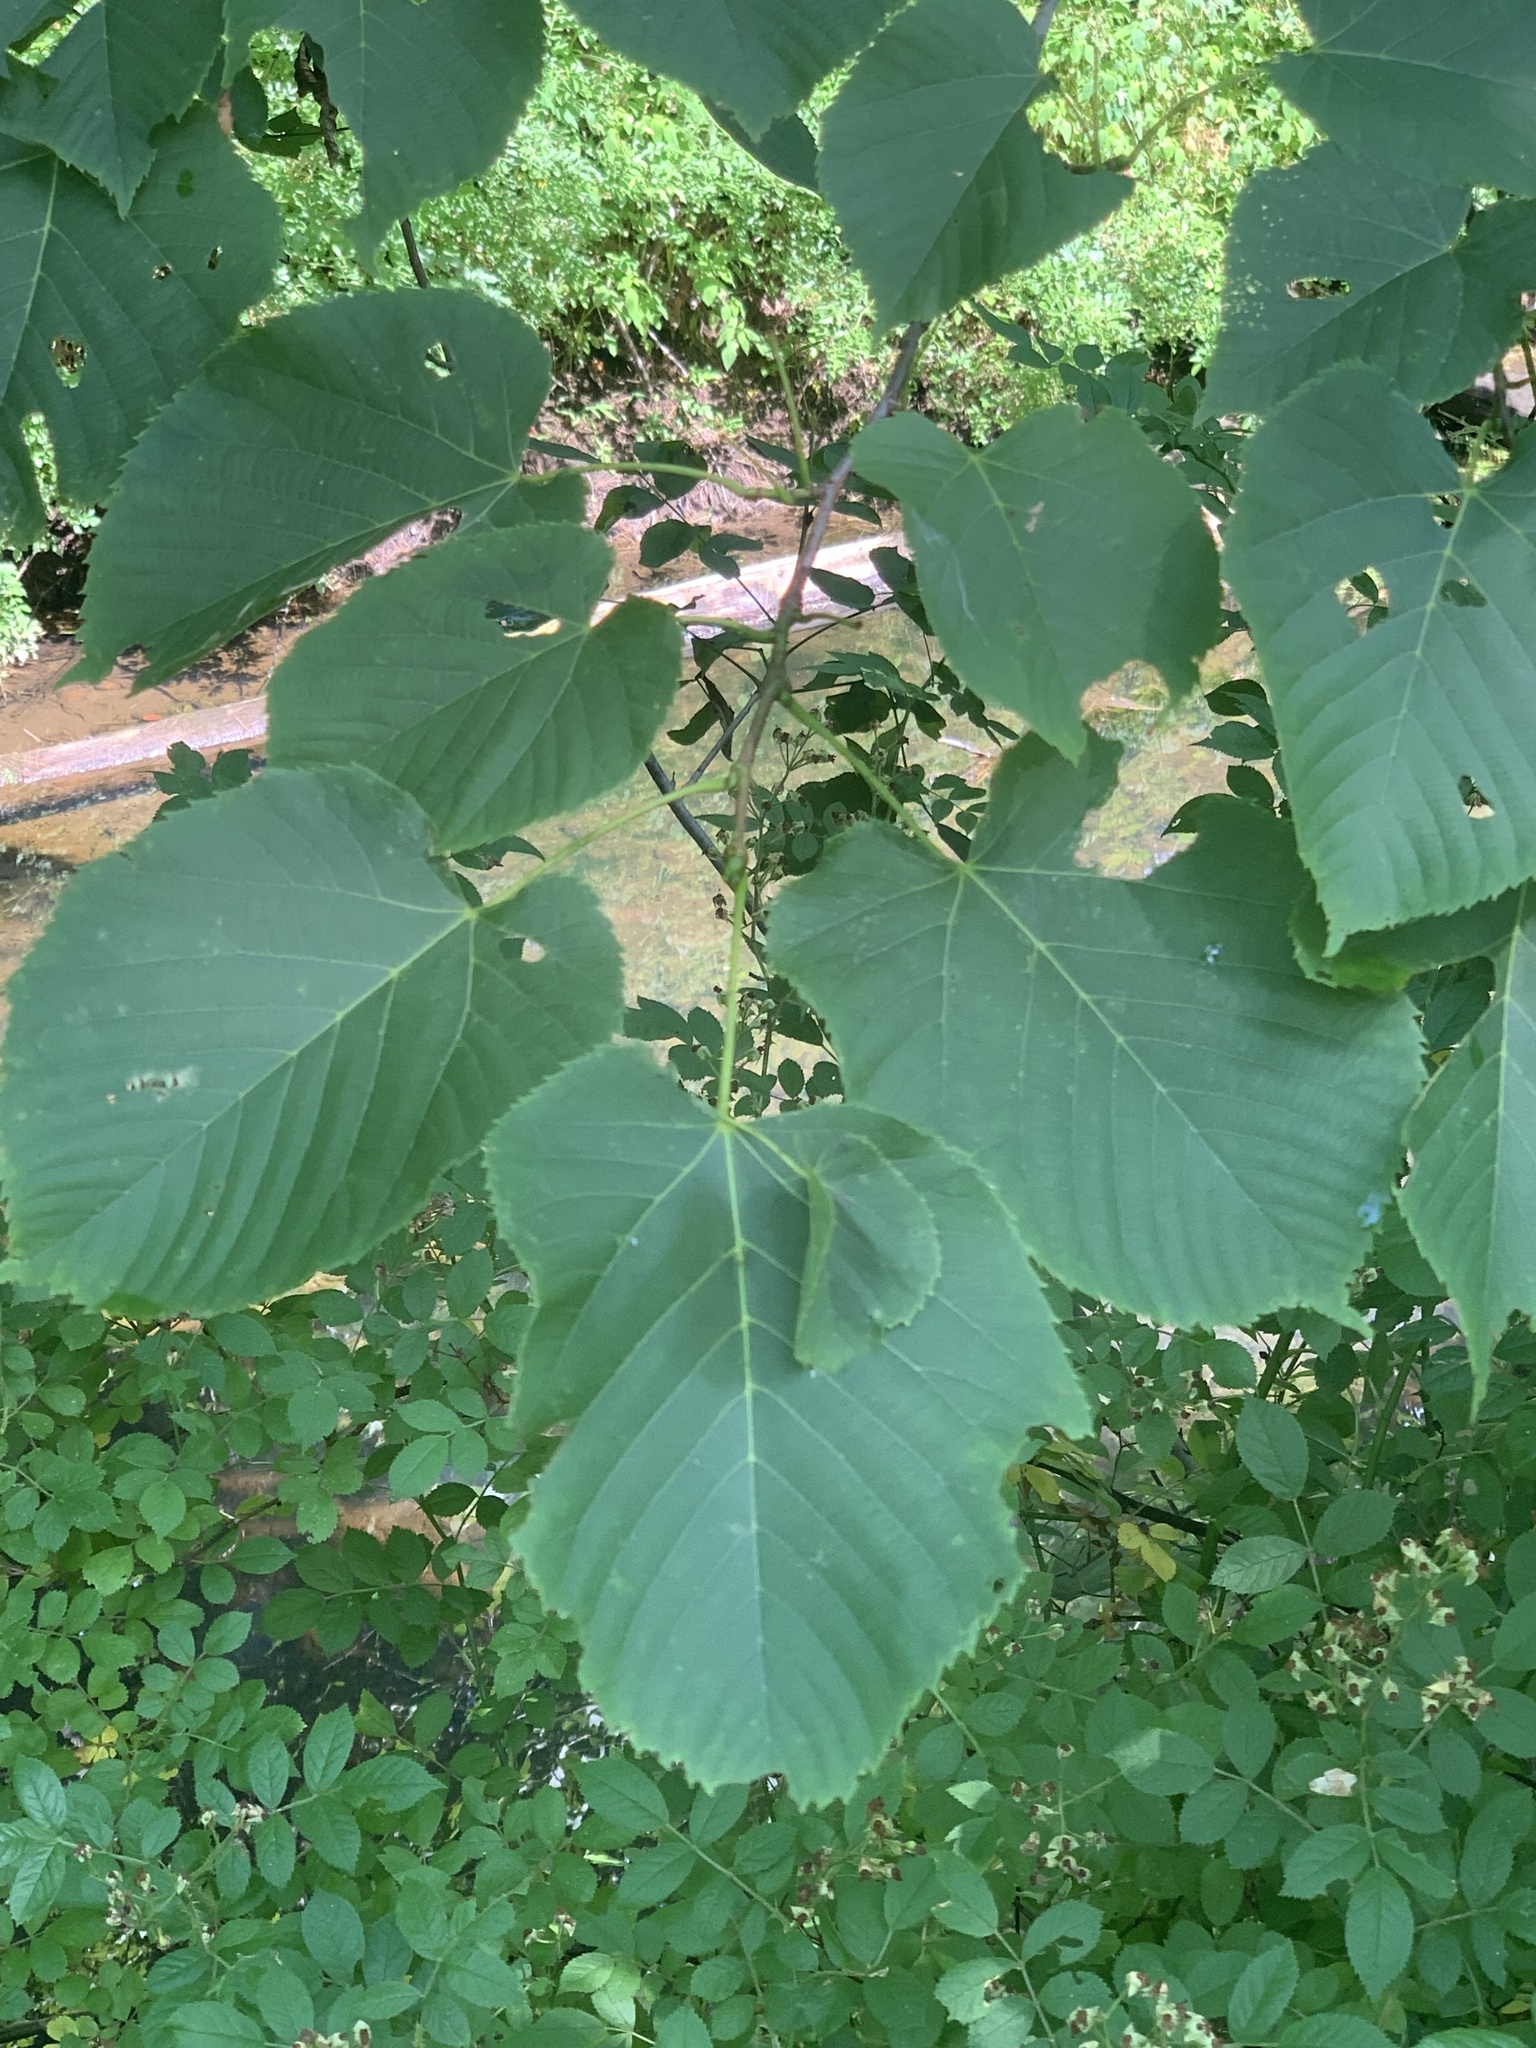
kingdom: Plantae
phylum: Tracheophyta
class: Magnoliopsida
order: Malvales
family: Malvaceae
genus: Tilia
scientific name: Tilia americana
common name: Basswood
